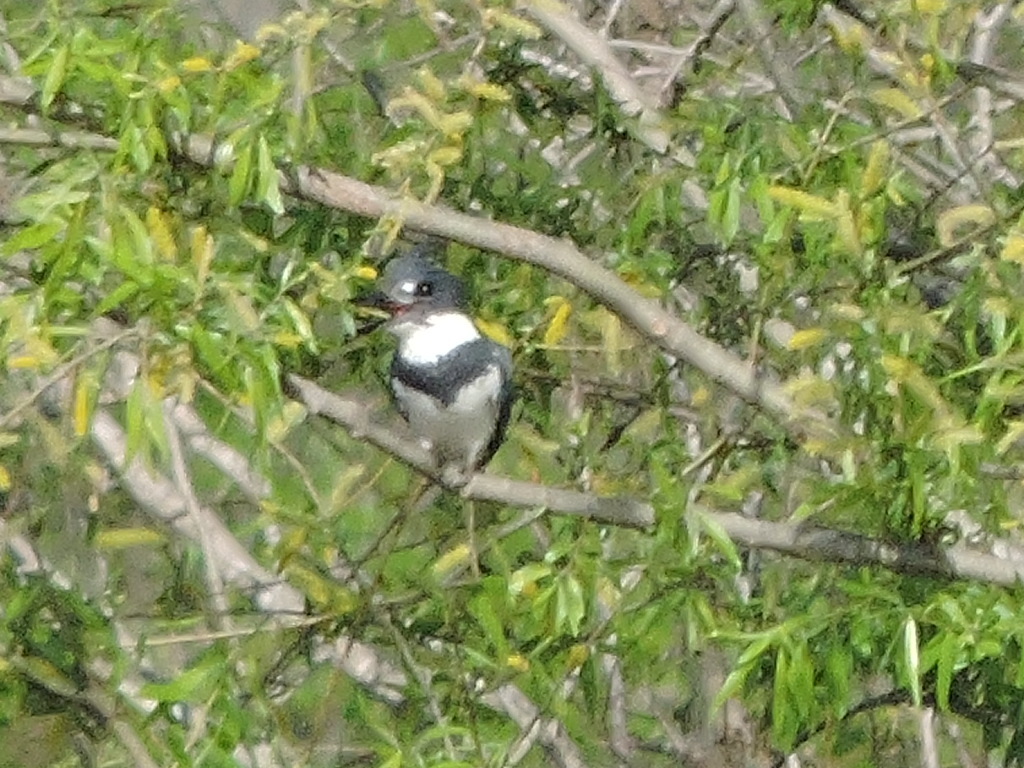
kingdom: Animalia
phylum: Chordata
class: Aves
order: Coraciiformes
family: Alcedinidae
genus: Megaceryle
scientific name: Megaceryle alcyon
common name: Belted kingfisher
